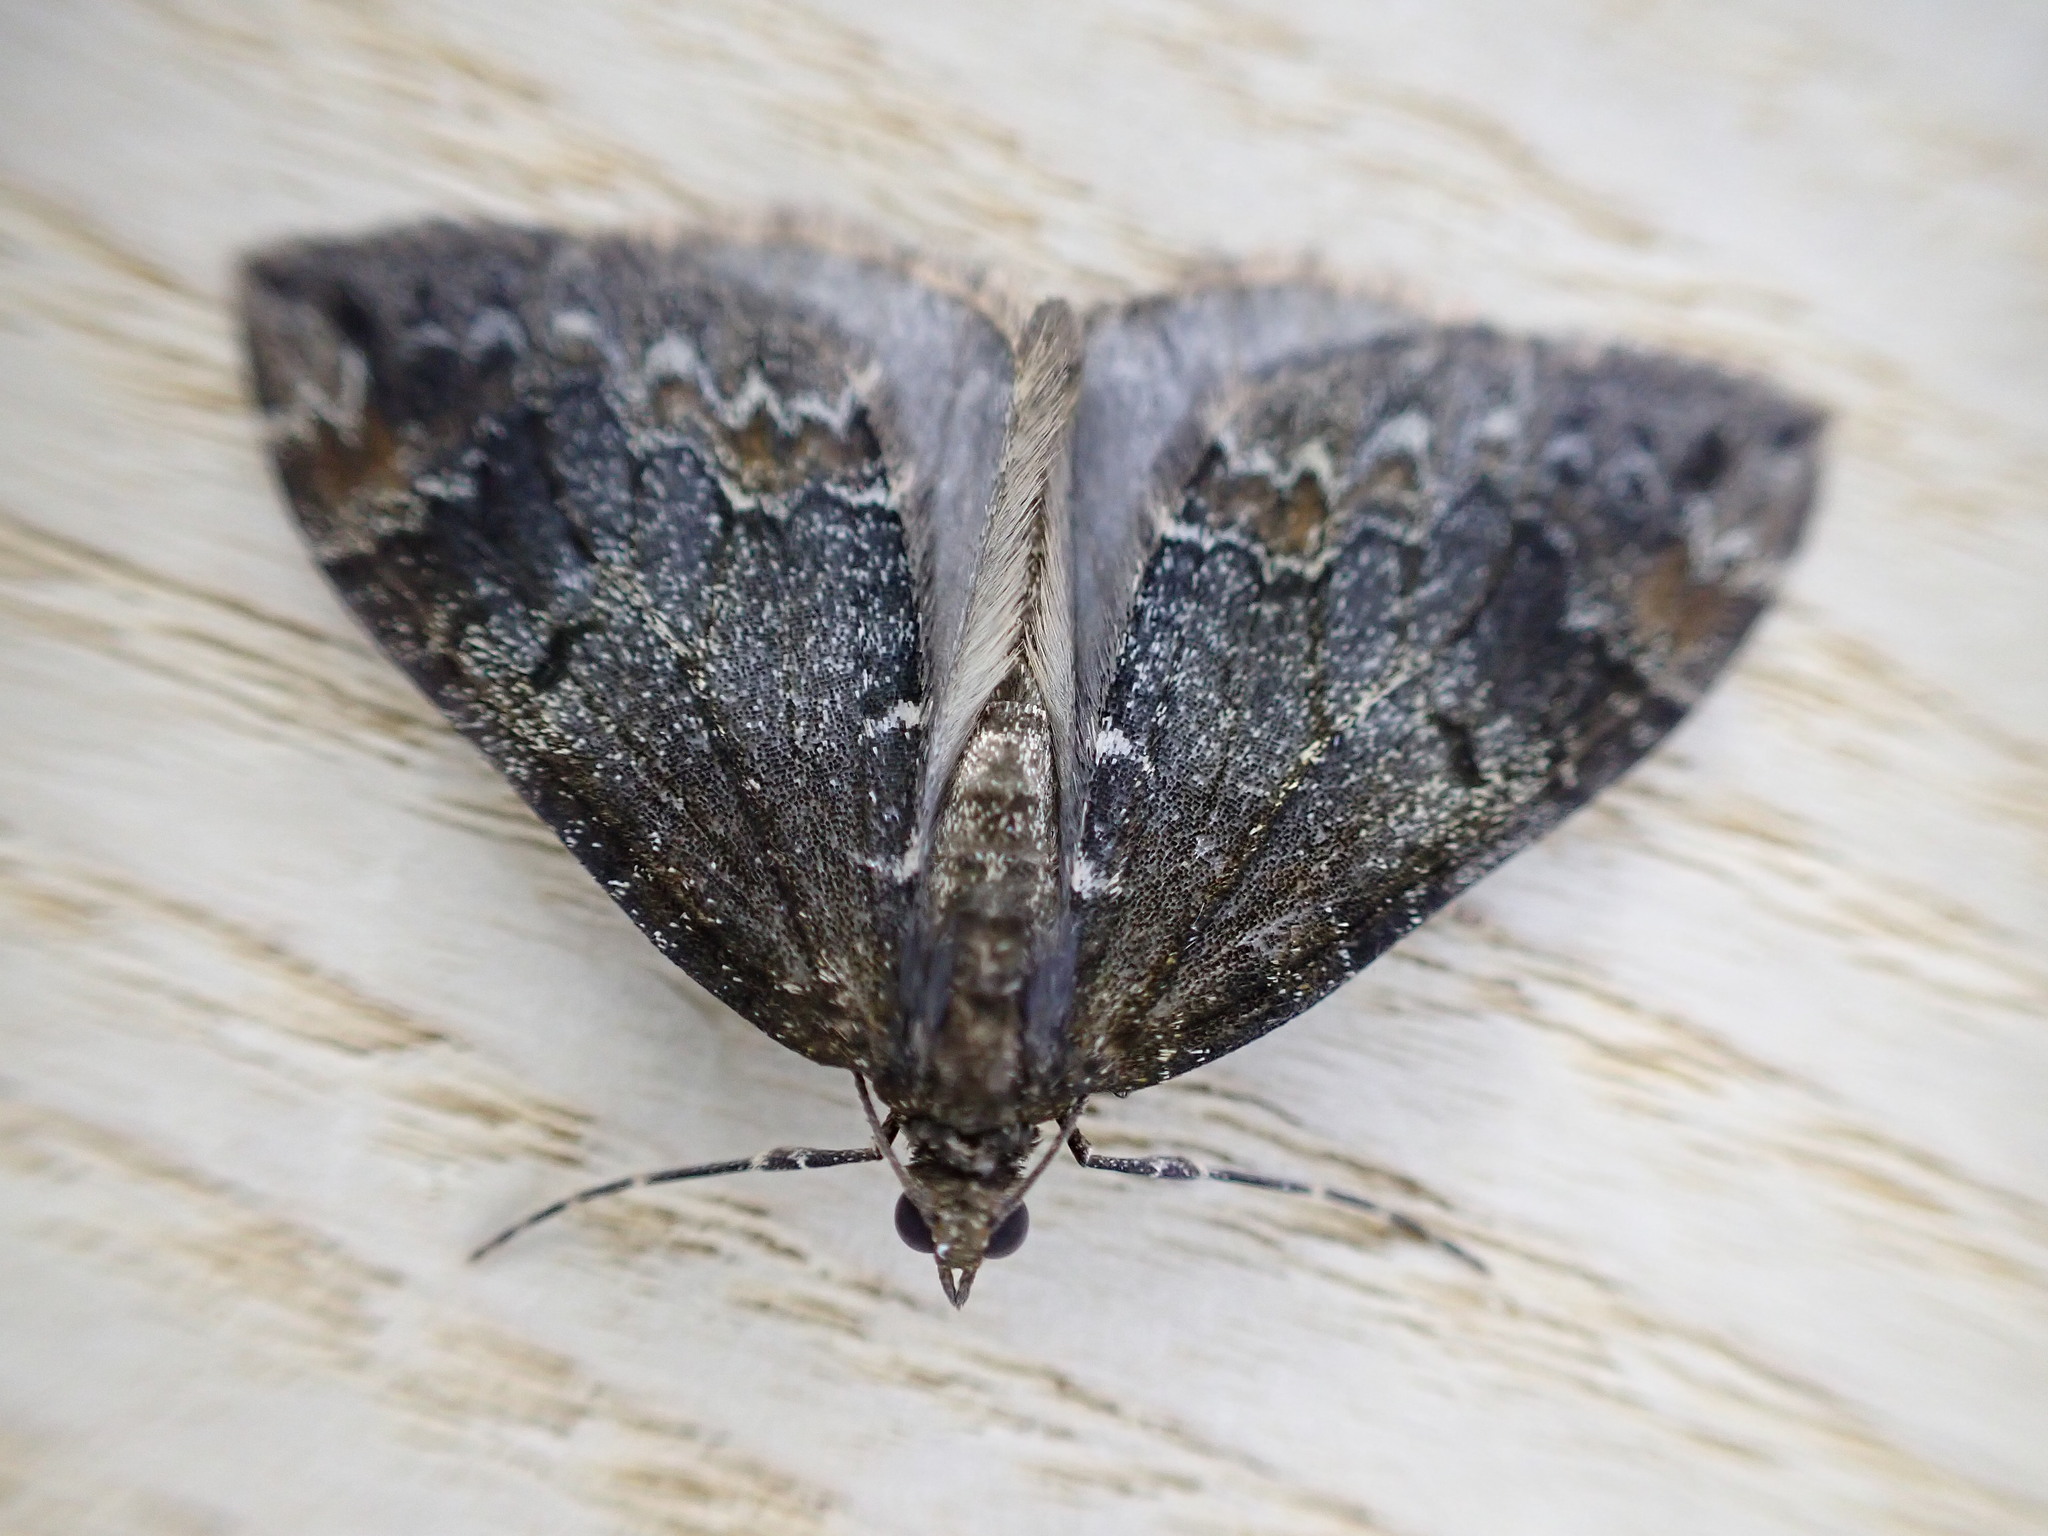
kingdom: Animalia
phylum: Arthropoda
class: Insecta
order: Lepidoptera
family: Geometridae
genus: Dysstroma
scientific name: Dysstroma truncata
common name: Common marbled carpet
